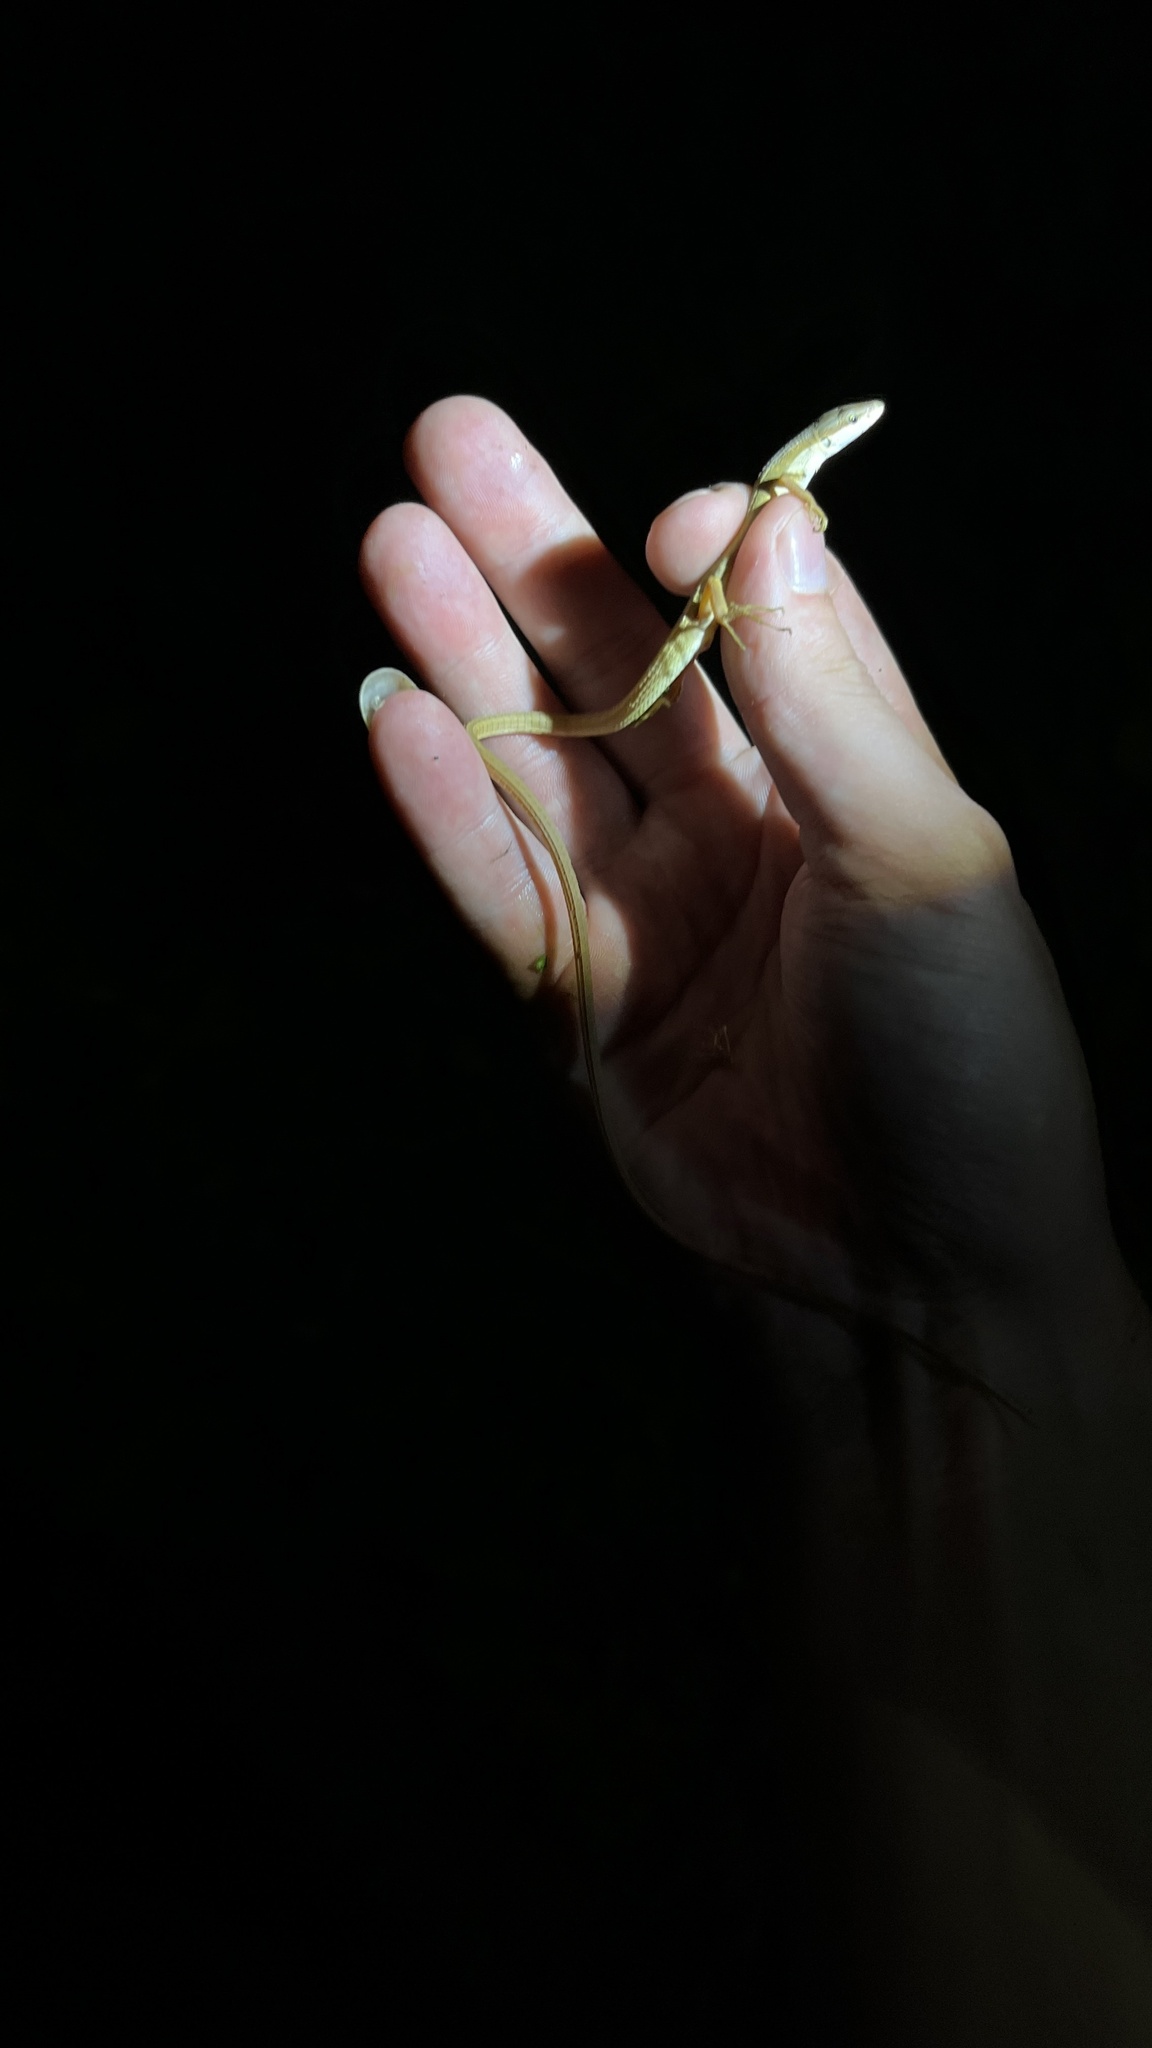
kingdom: Animalia
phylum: Chordata
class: Squamata
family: Lacertidae
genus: Takydromus
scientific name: Takydromus sexlineatus
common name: Asian grass lizard
